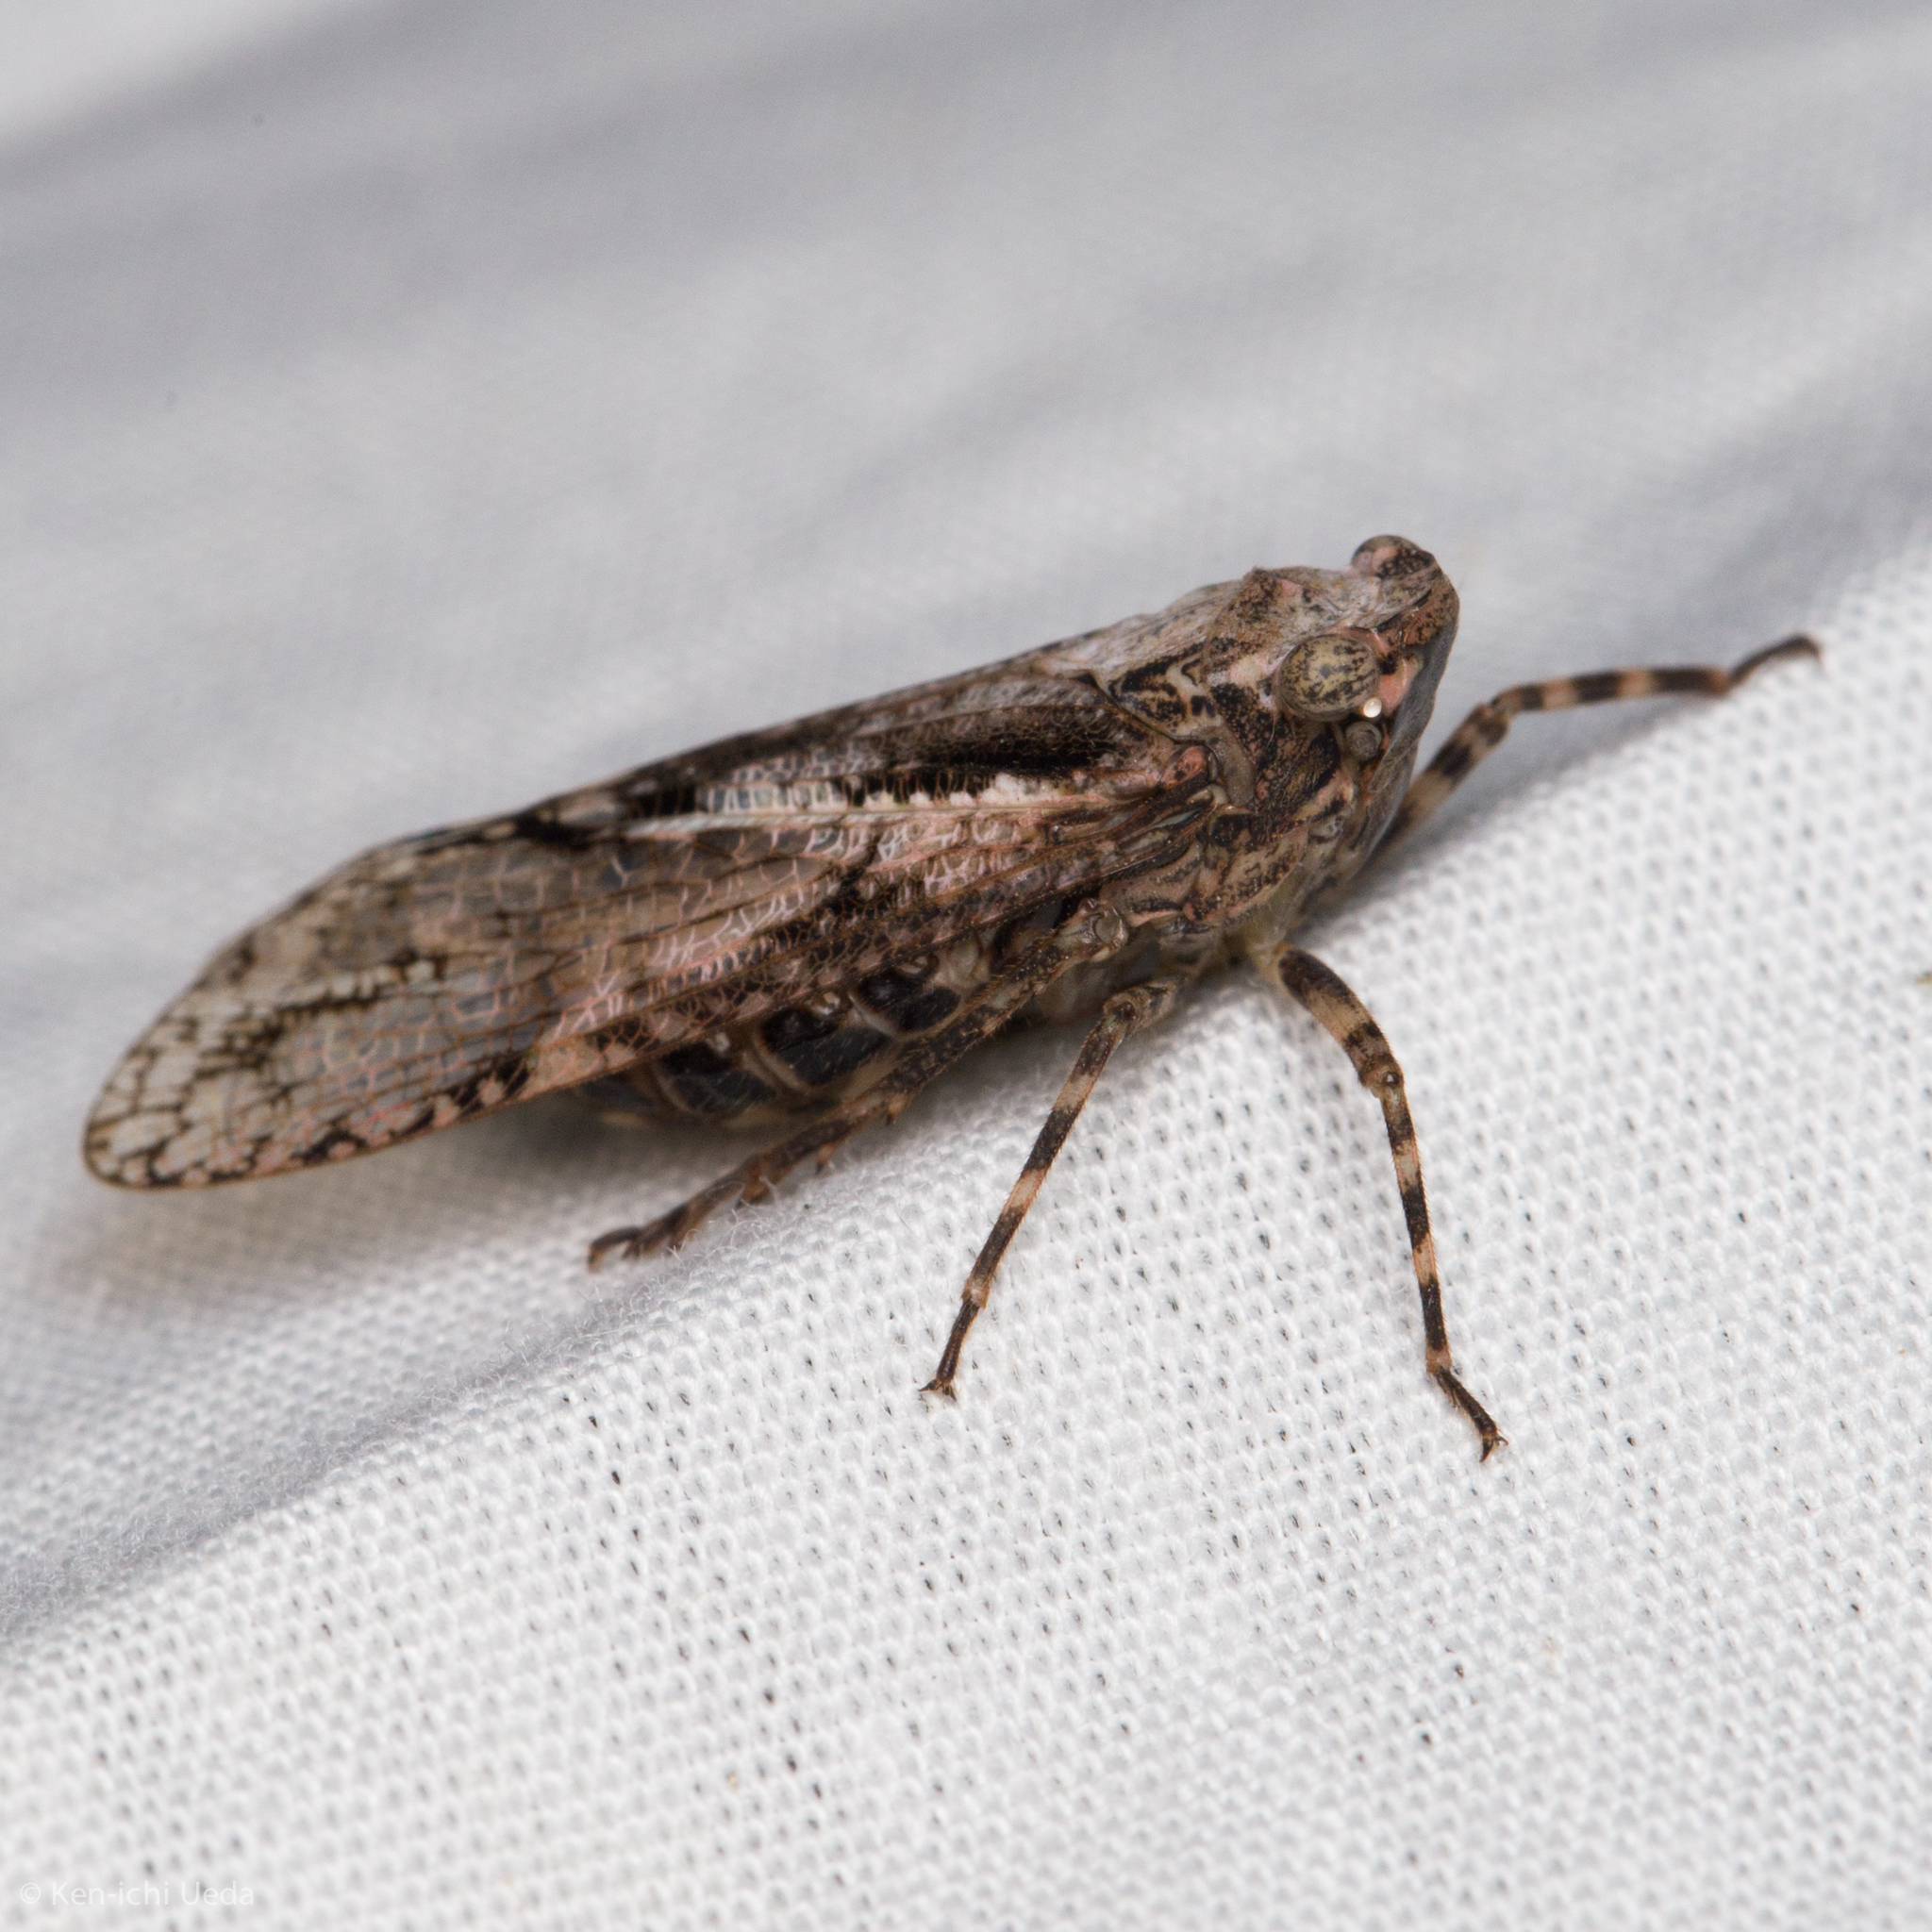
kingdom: Animalia
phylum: Arthropoda
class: Insecta
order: Hemiptera
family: Fulgoridae
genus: Alphina
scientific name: Alphina glauca
